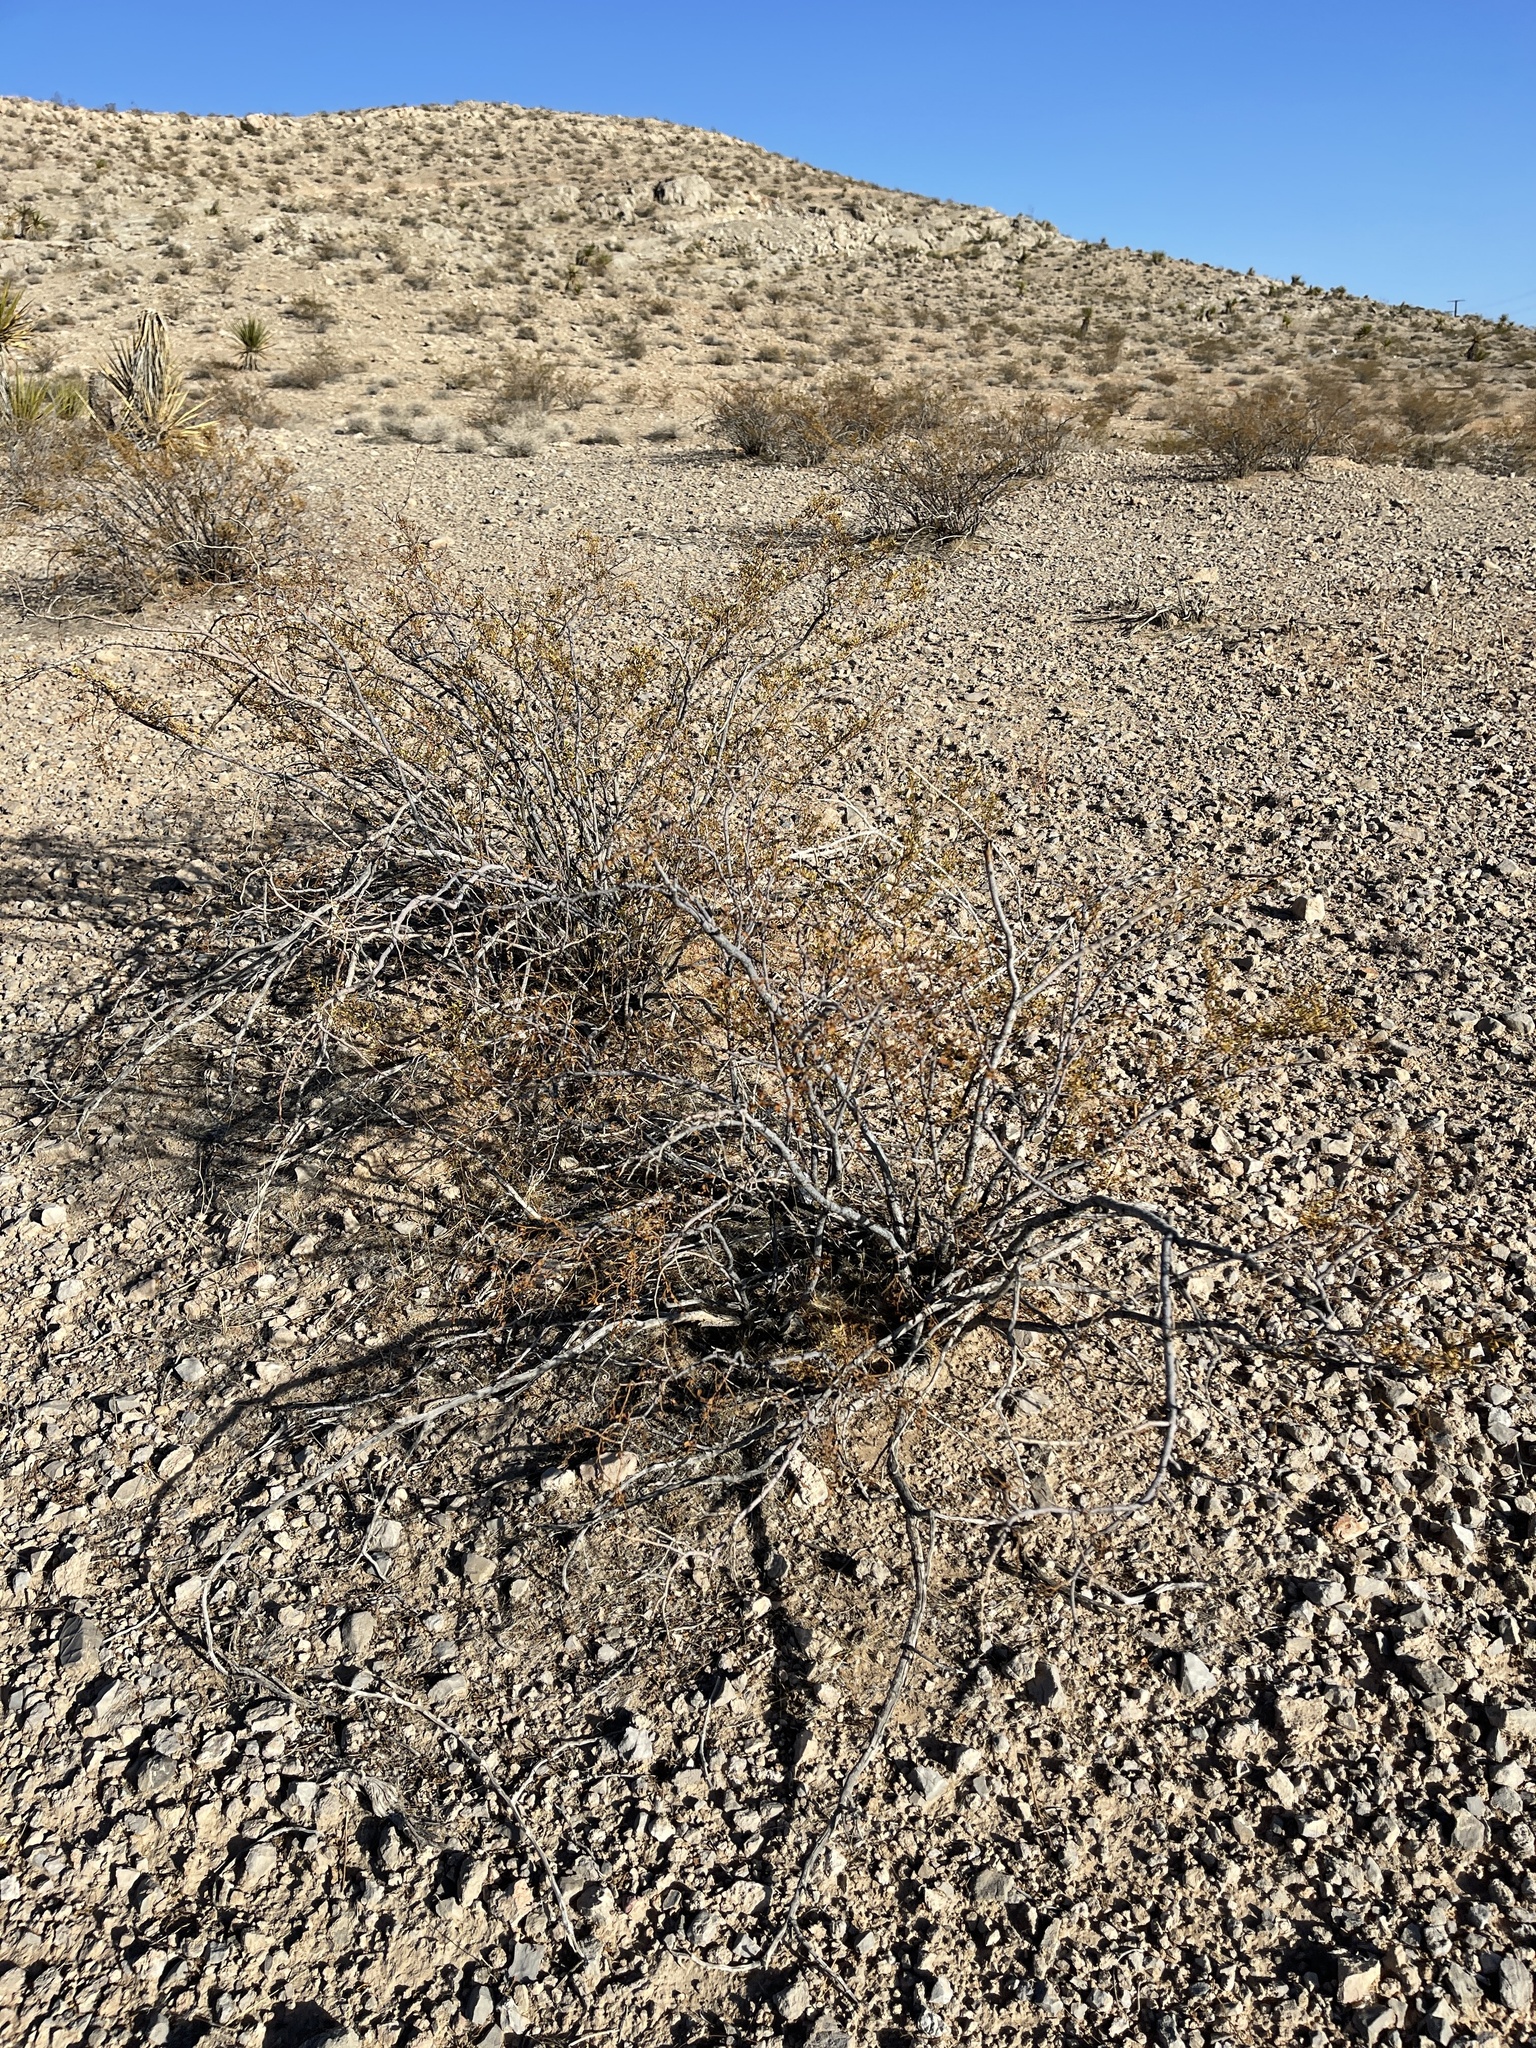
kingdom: Plantae
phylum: Tracheophyta
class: Magnoliopsida
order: Zygophyllales
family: Zygophyllaceae
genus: Larrea
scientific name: Larrea tridentata
